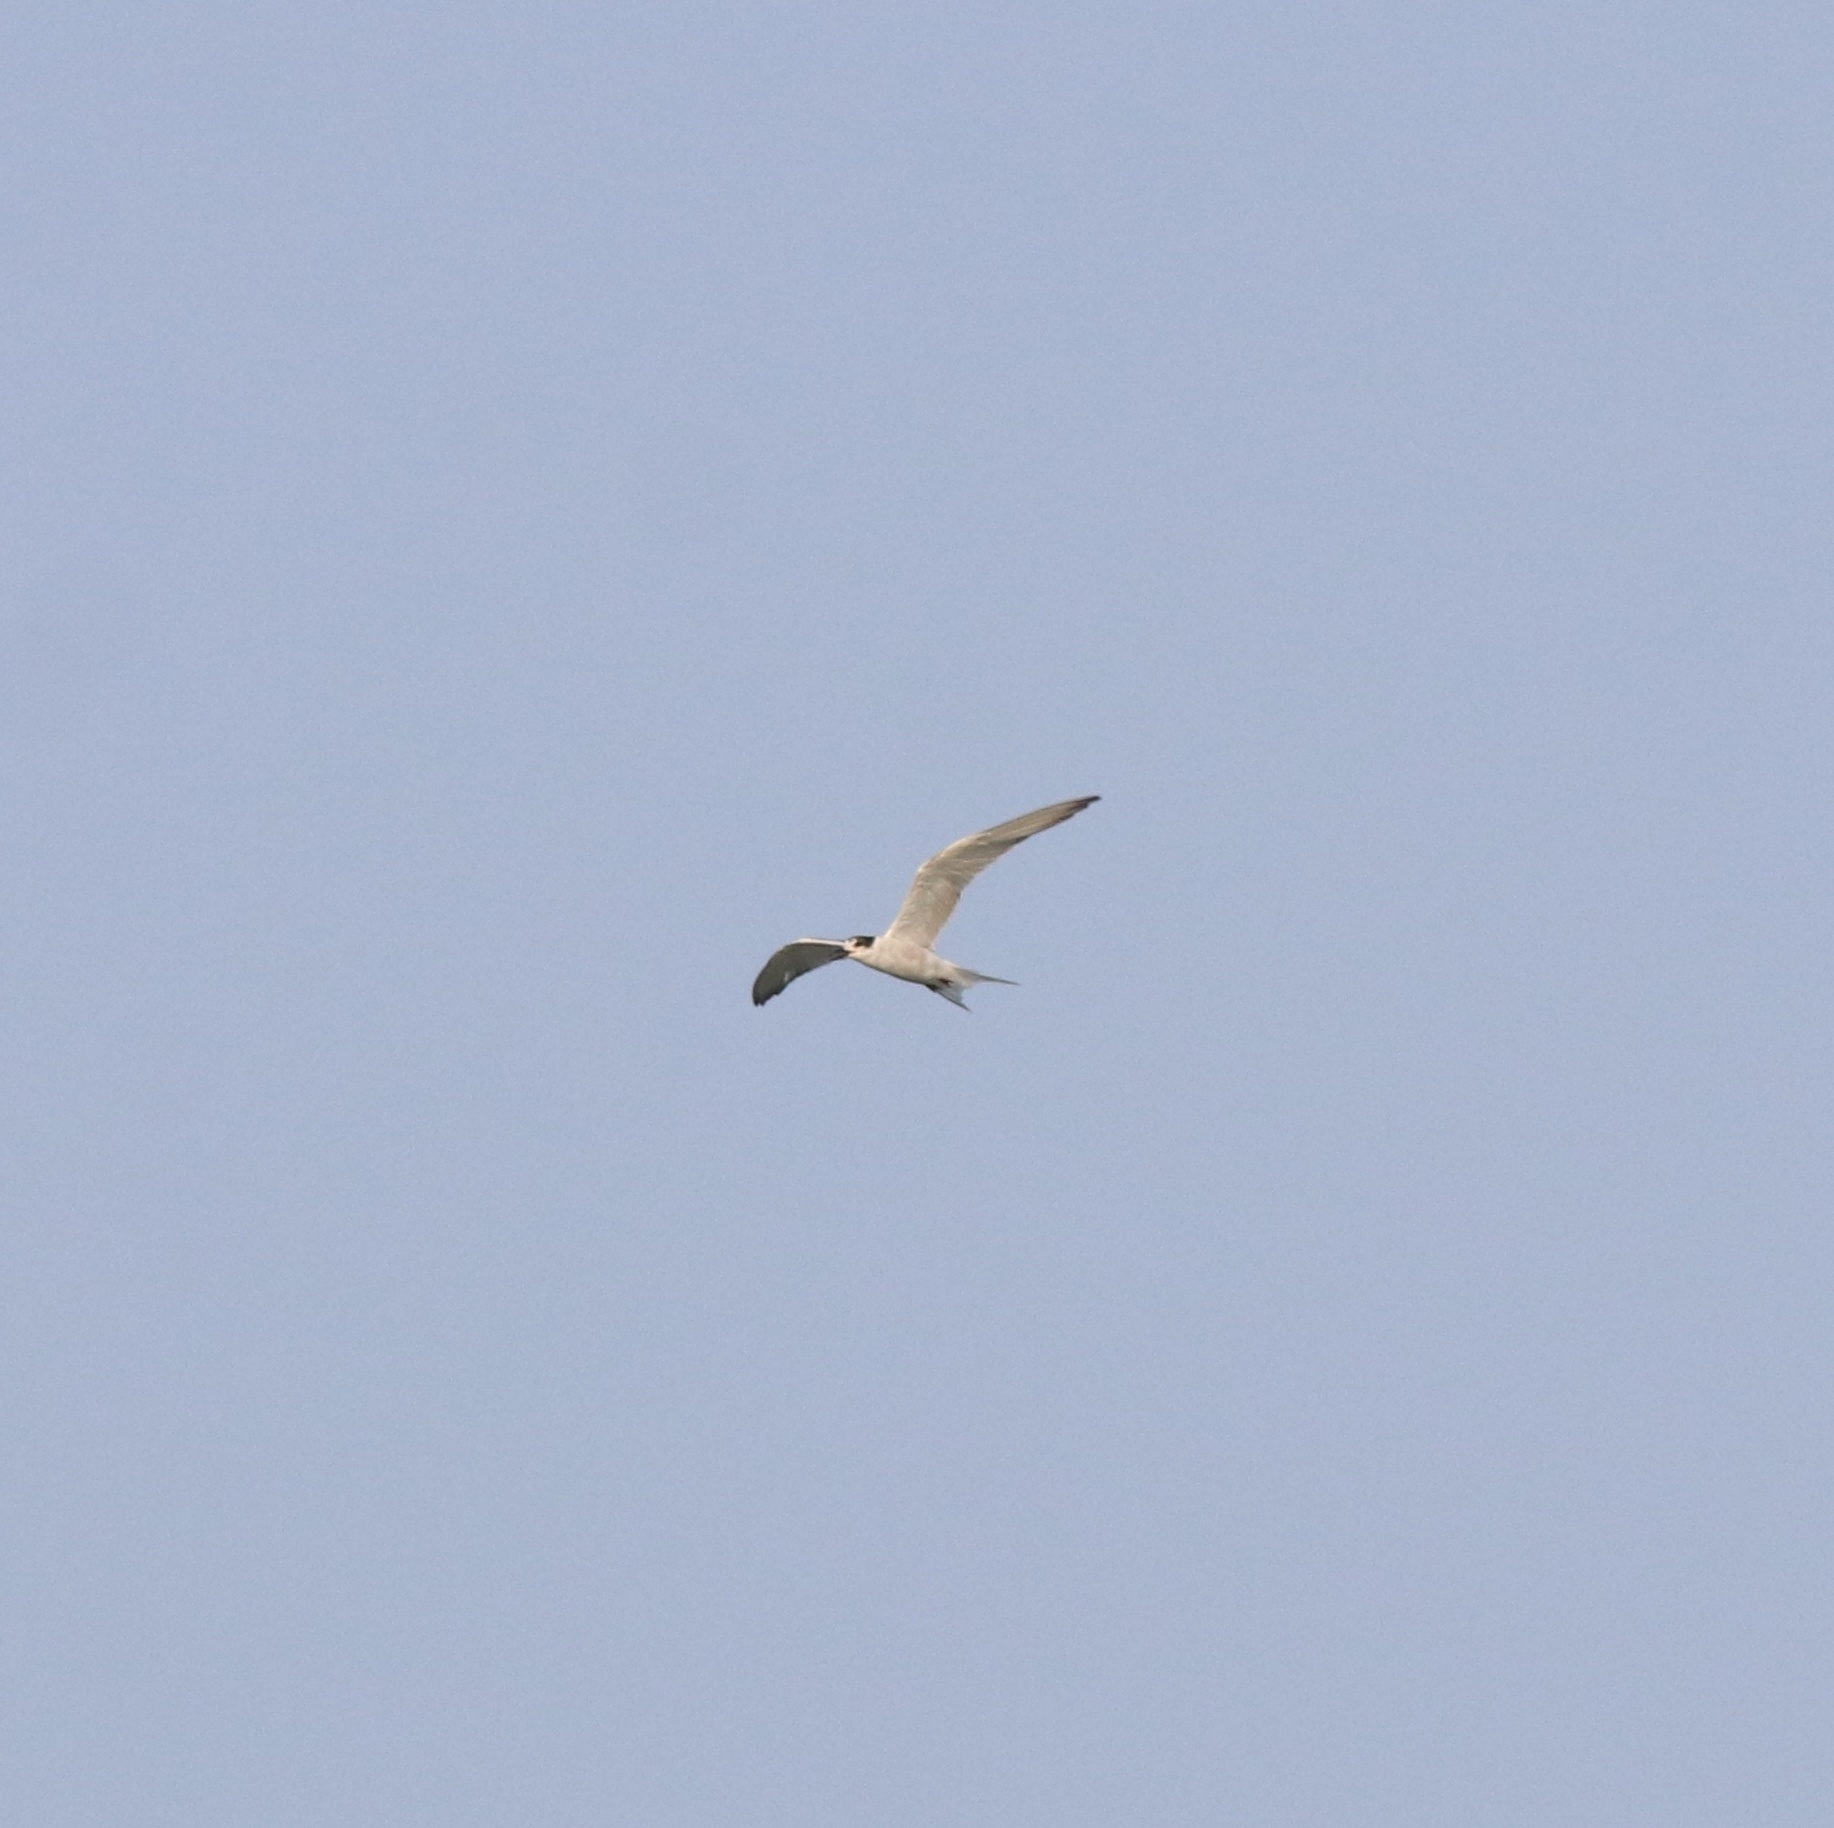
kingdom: Animalia
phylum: Chordata
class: Aves
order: Charadriiformes
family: Laridae
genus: Sterna
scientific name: Sterna hirundo
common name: Common tern
